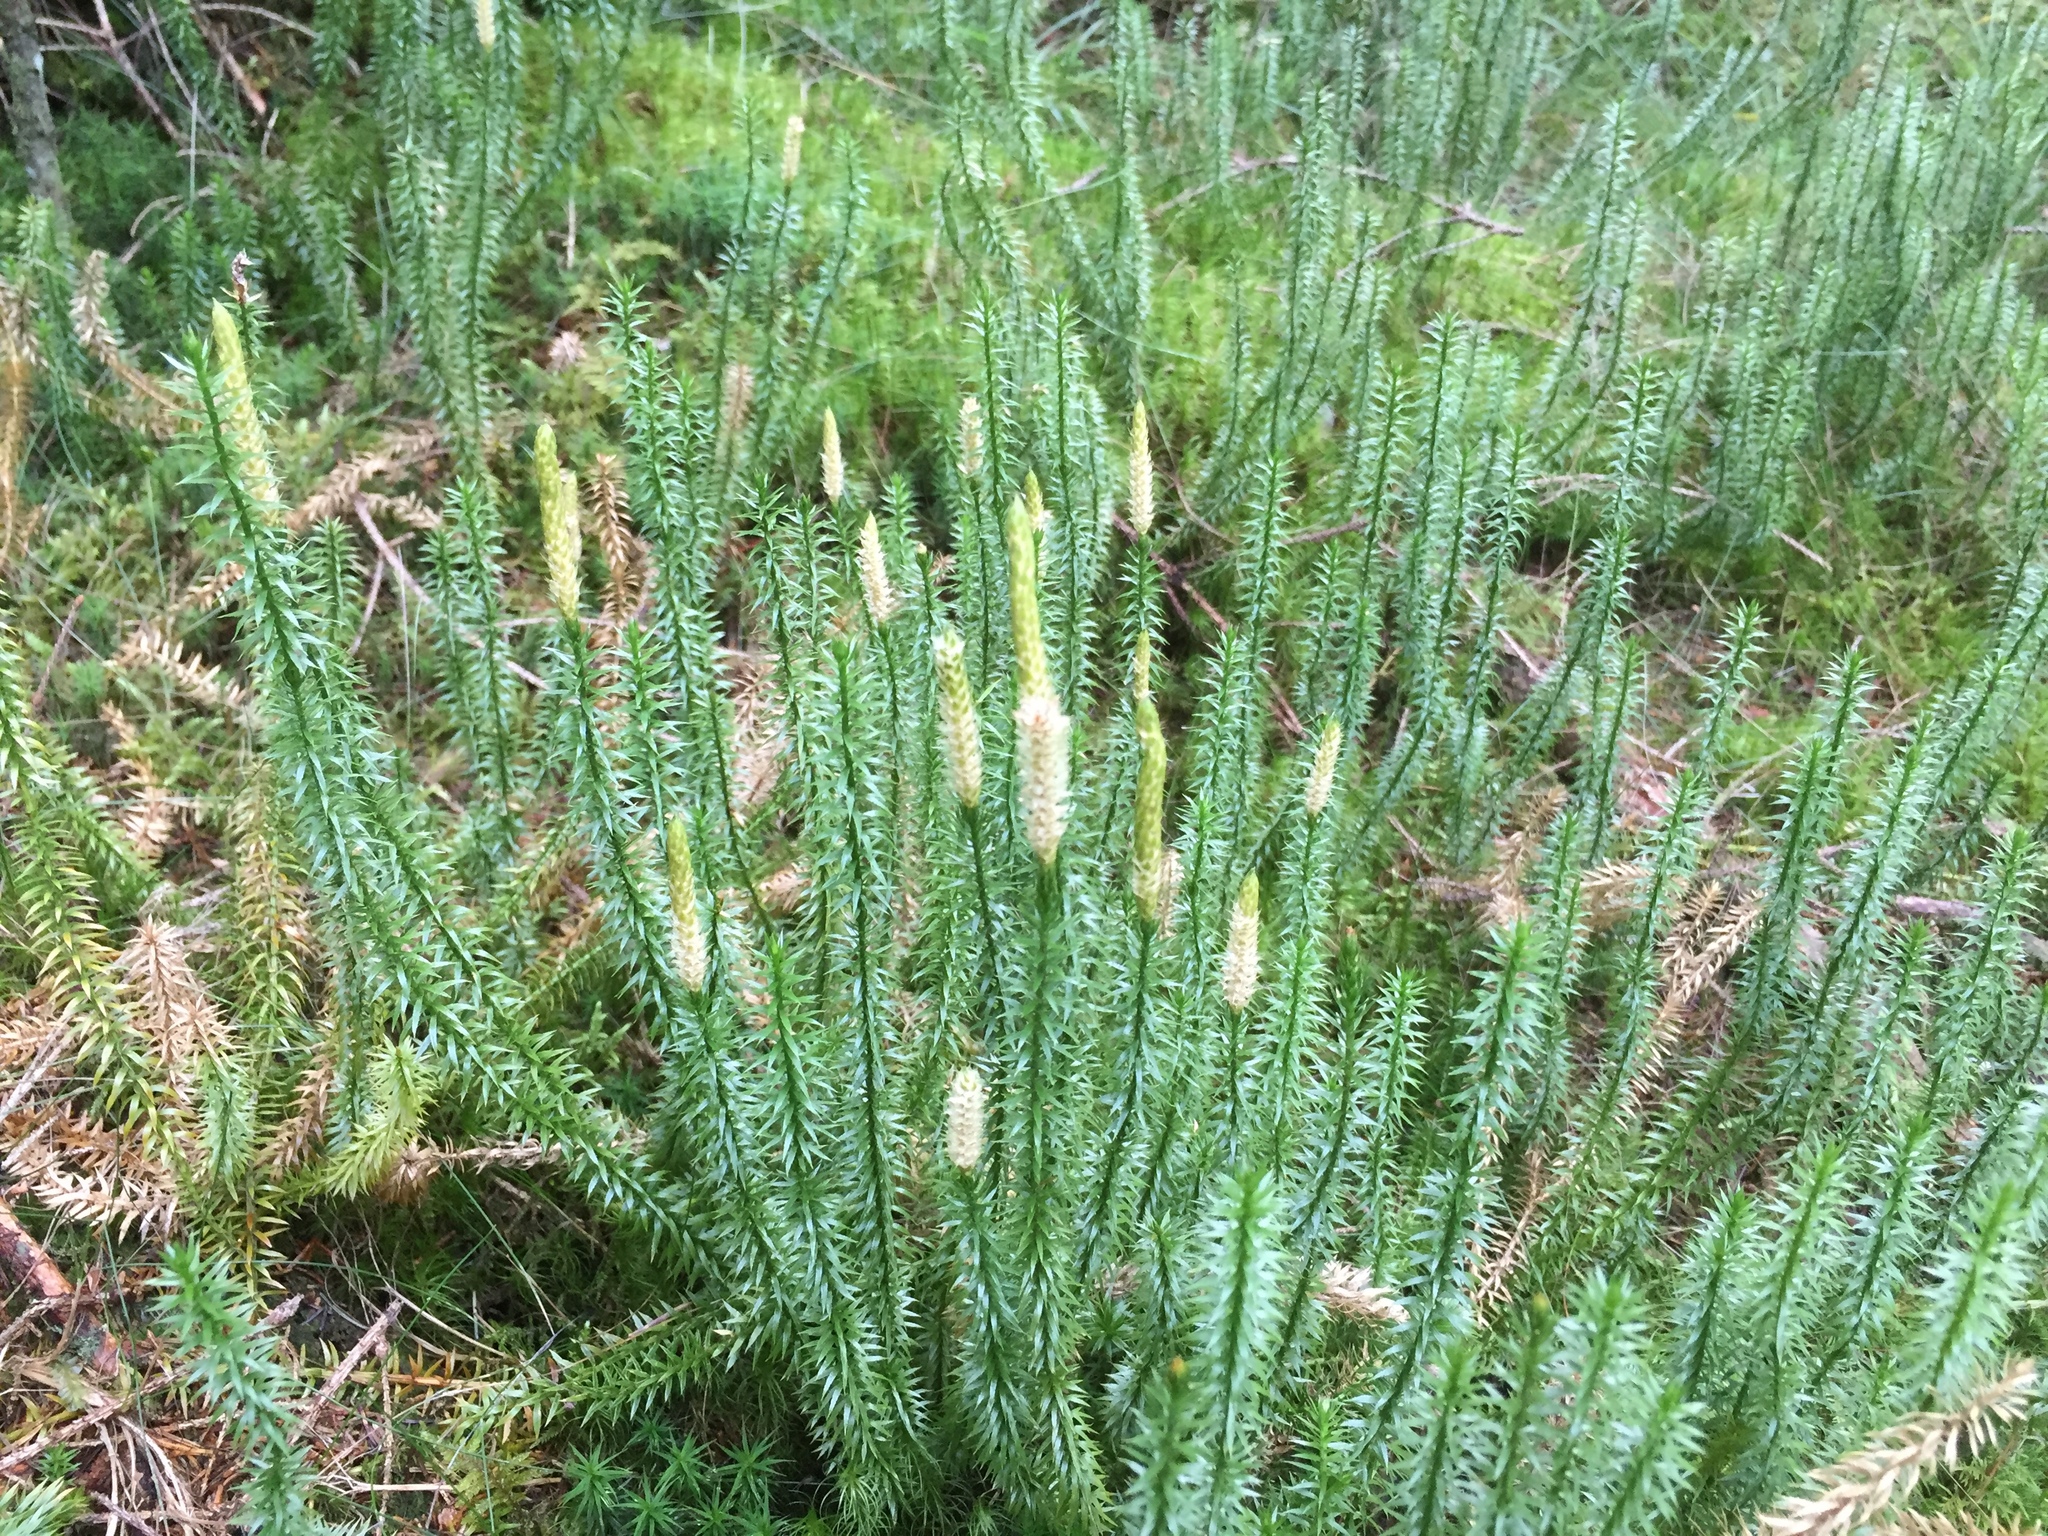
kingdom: Plantae
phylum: Tracheophyta
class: Lycopodiopsida
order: Lycopodiales
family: Lycopodiaceae
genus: Spinulum
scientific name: Spinulum annotinum
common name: Interrupted club-moss
